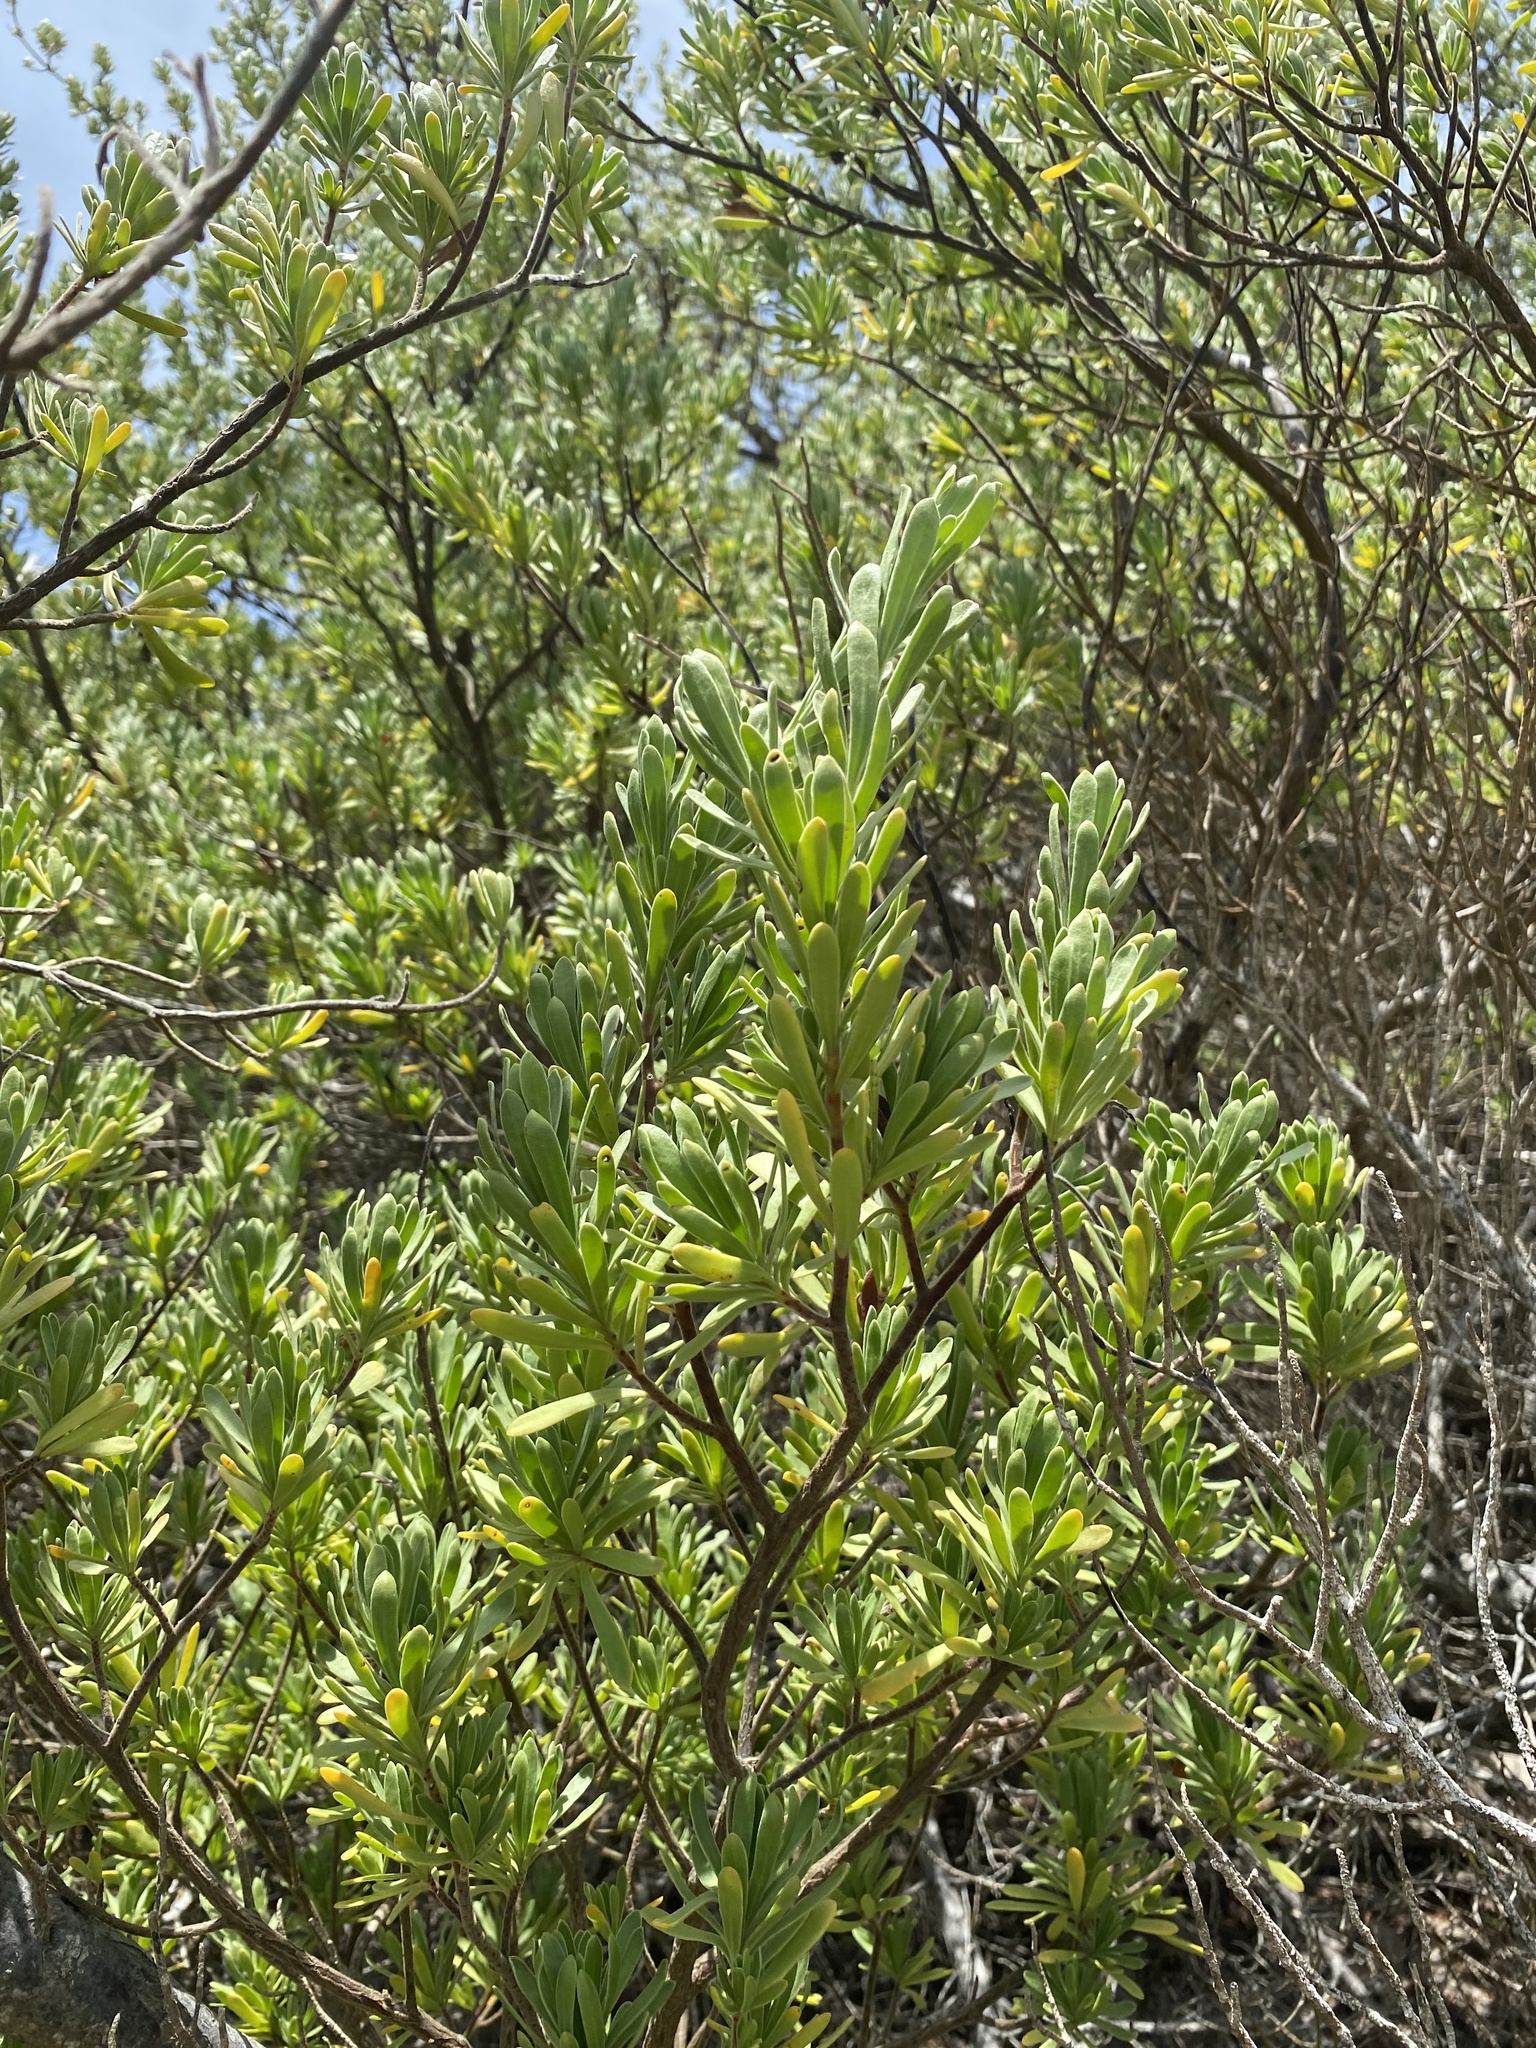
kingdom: Plantae
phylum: Tracheophyta
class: Magnoliopsida
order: Fabales
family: Surianaceae
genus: Suriana
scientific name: Suriana maritima
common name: Bay-cedar
